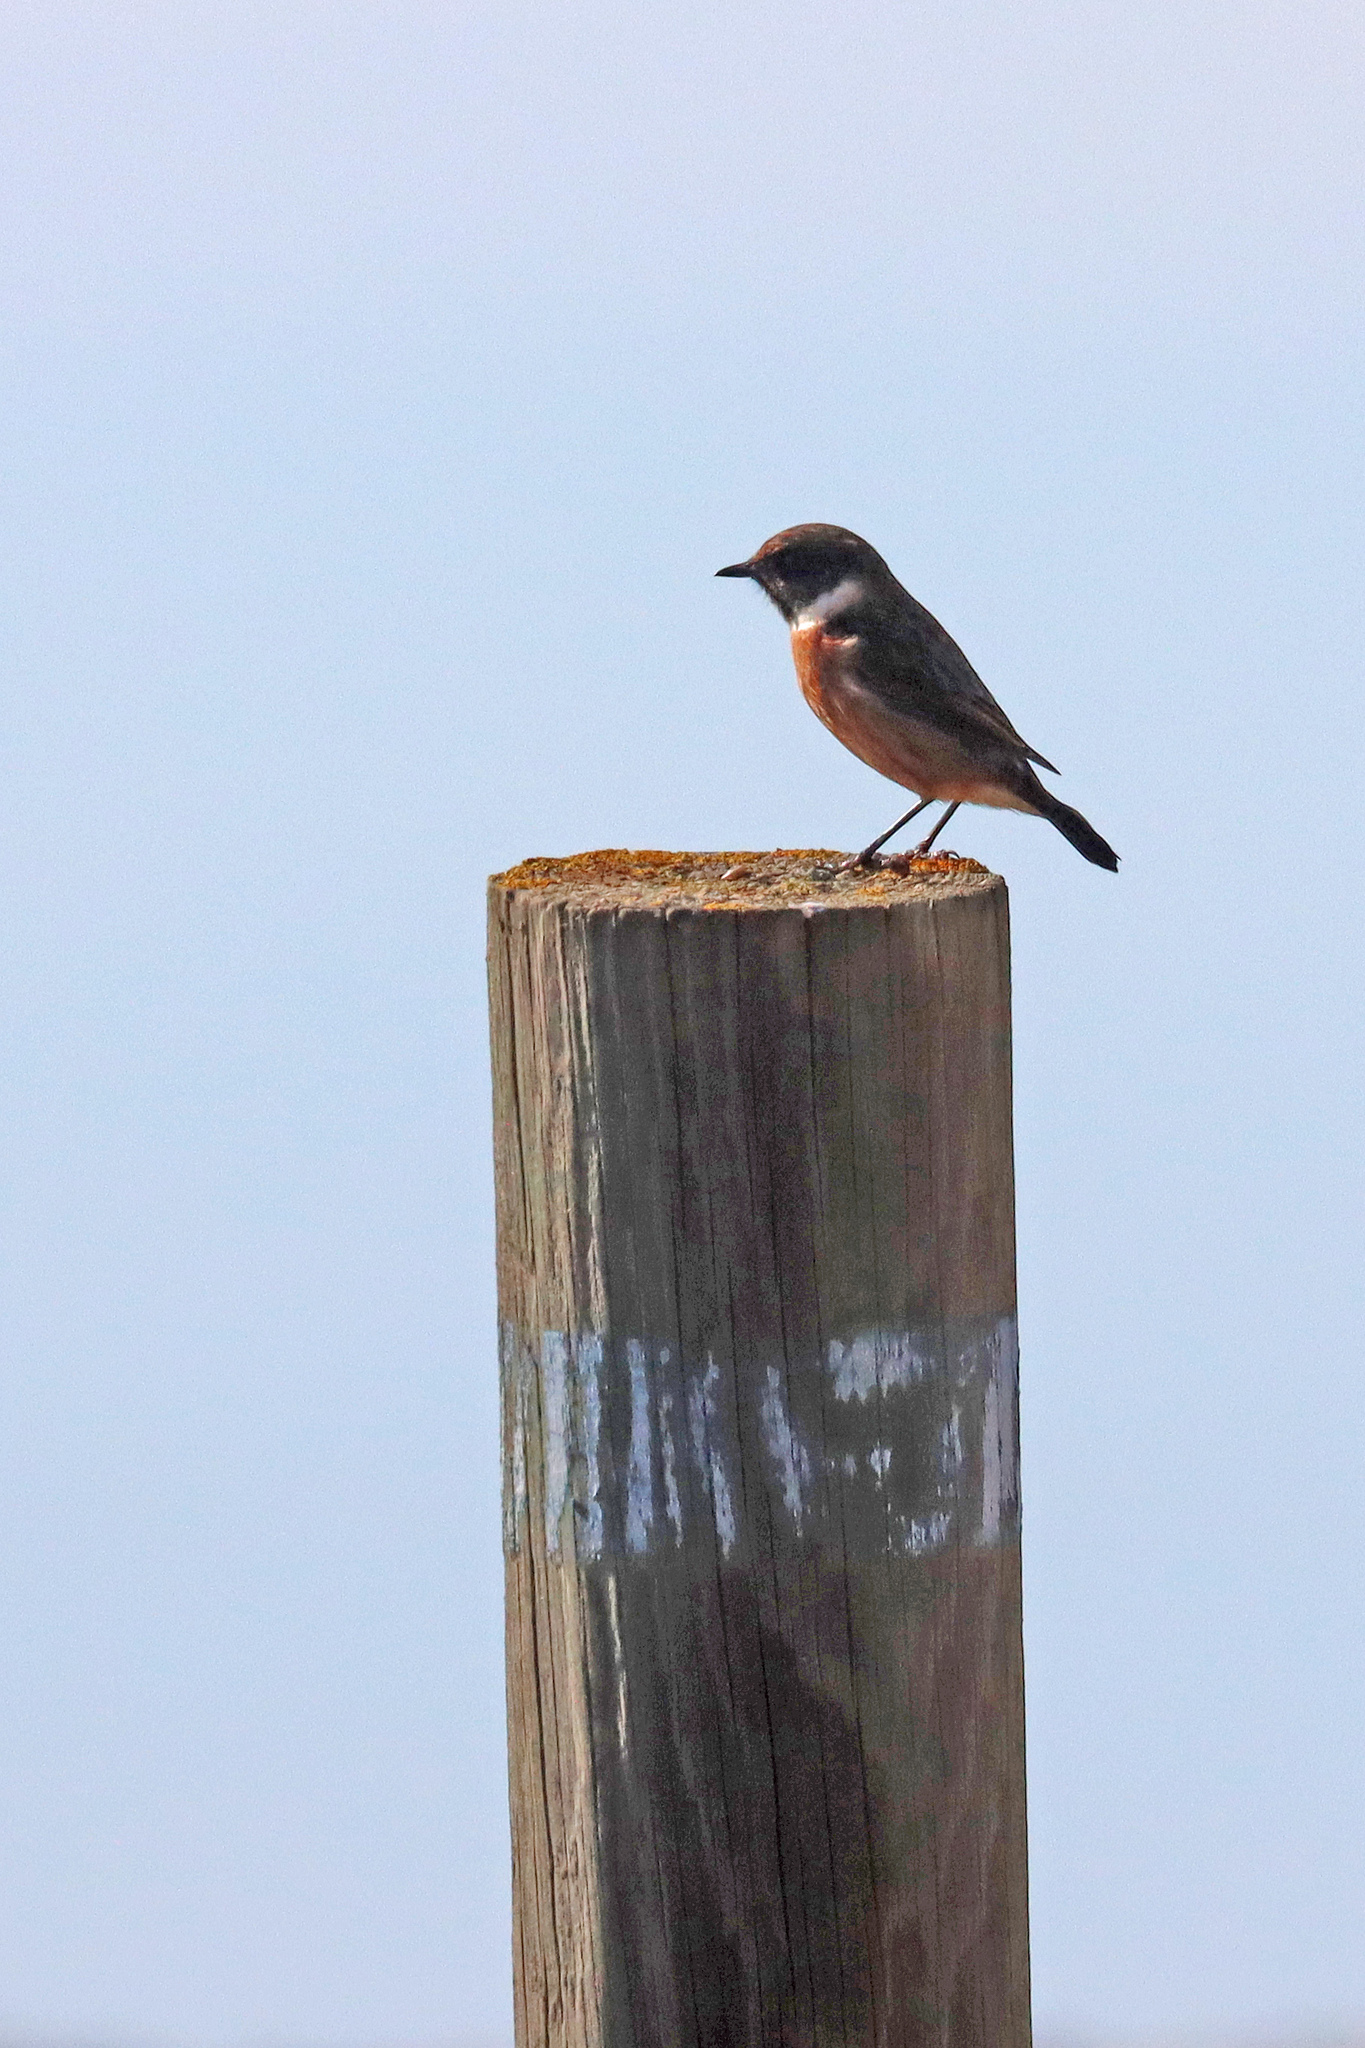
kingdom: Animalia
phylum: Chordata
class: Aves
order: Passeriformes
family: Muscicapidae
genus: Saxicola
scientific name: Saxicola rubicola
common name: European stonechat
